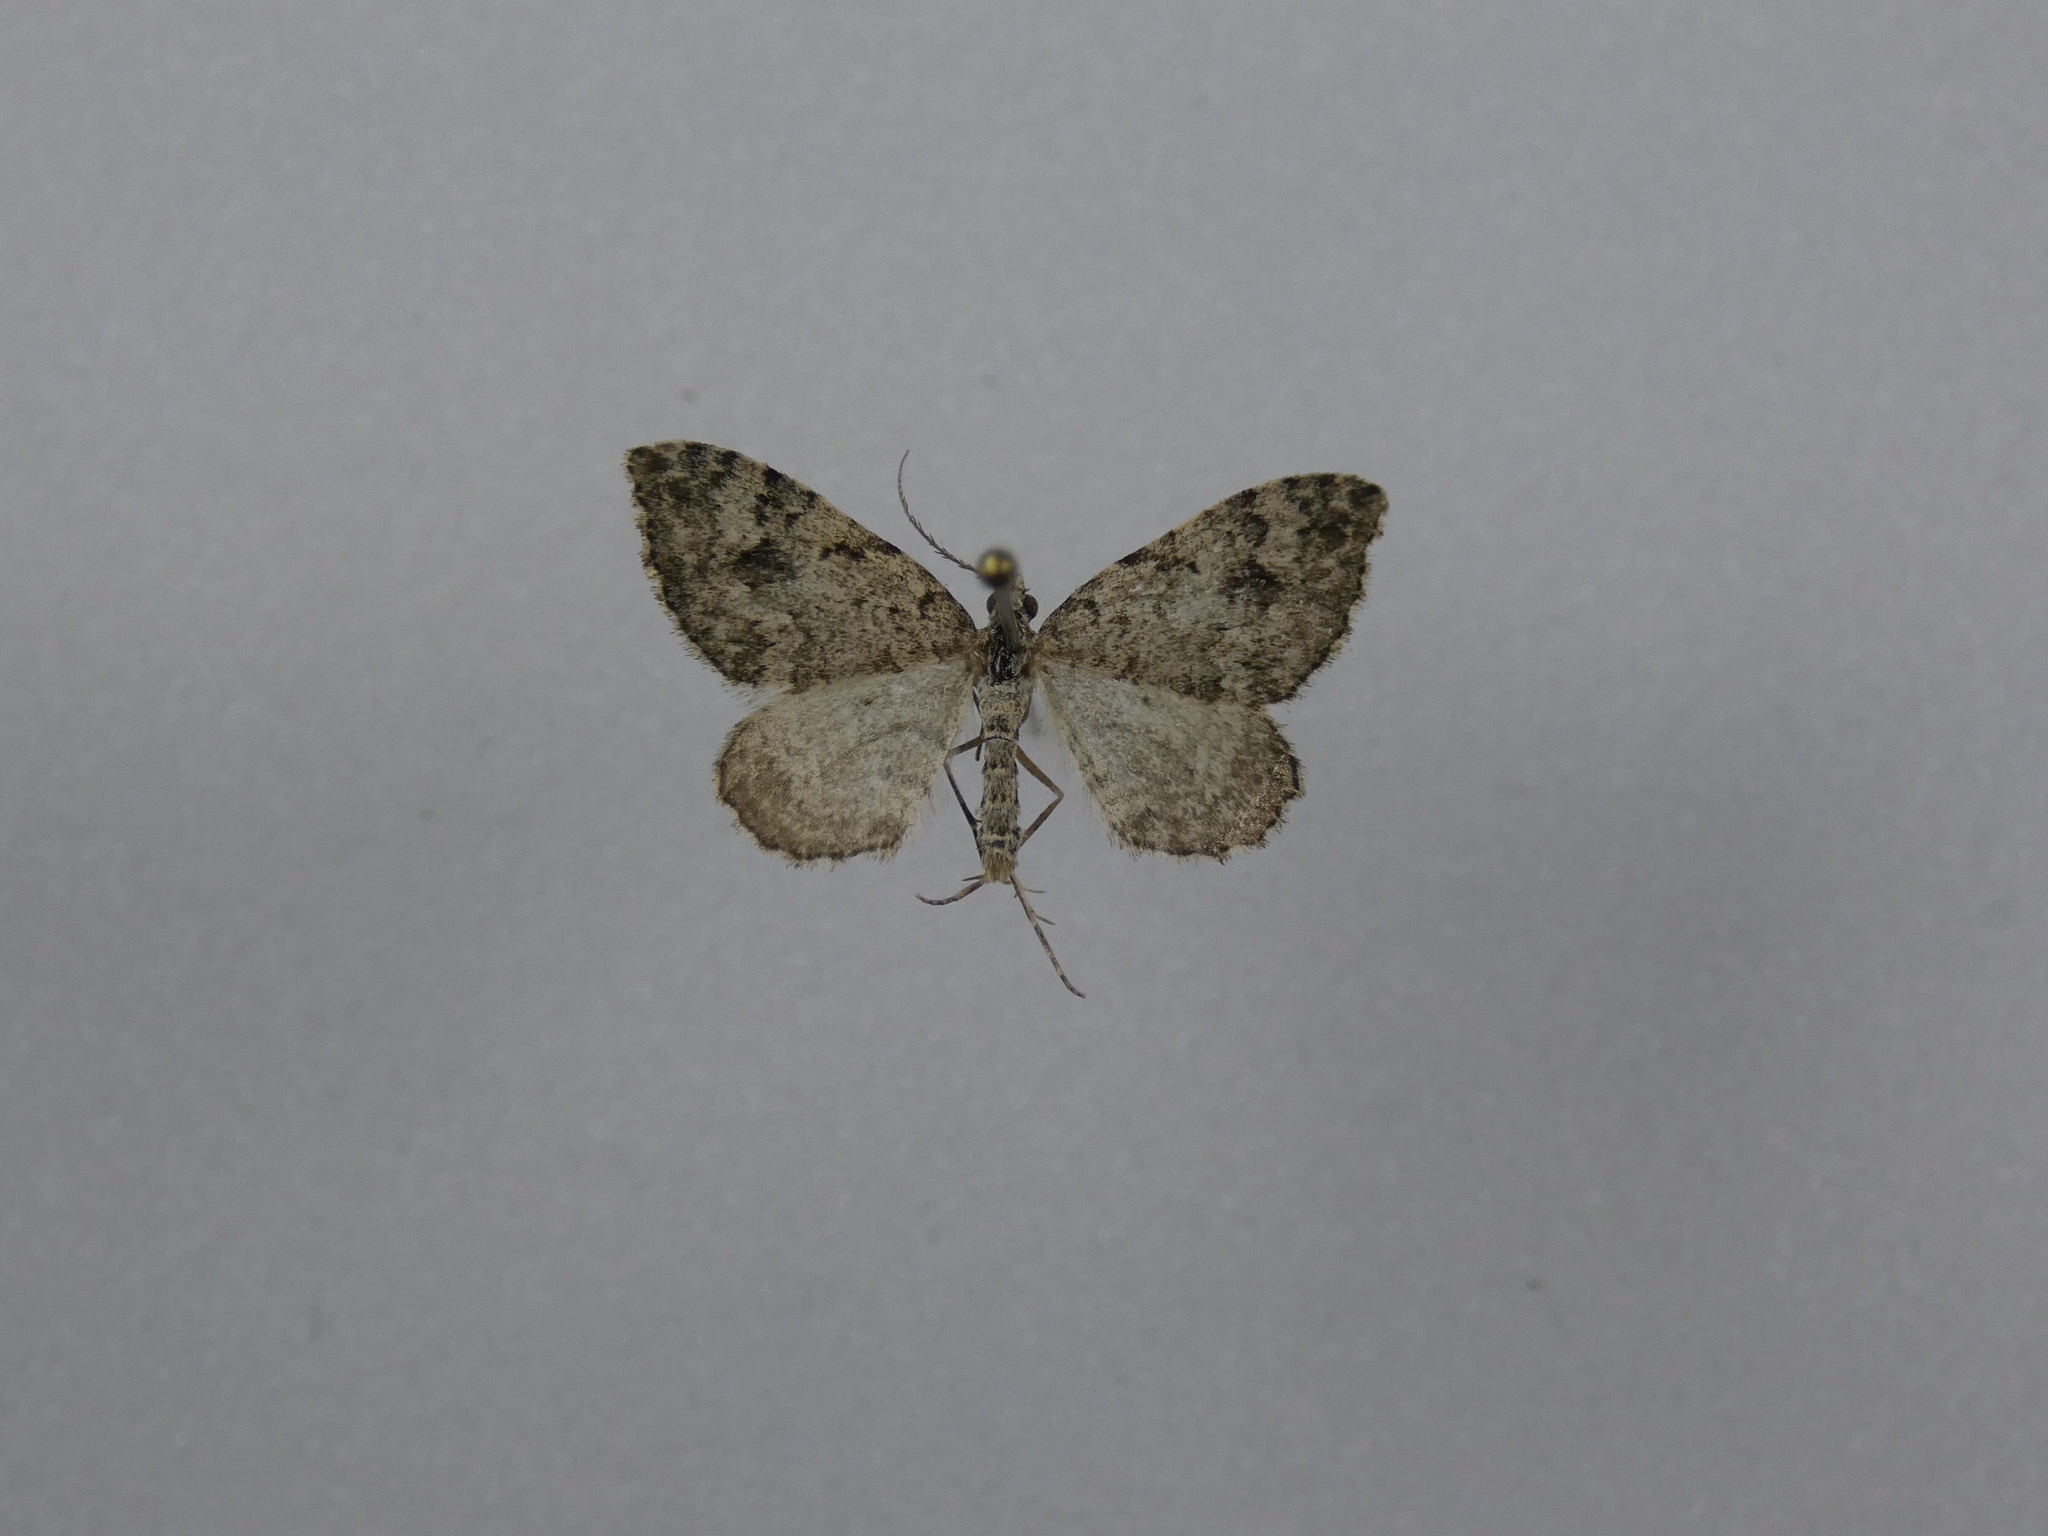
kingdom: Animalia
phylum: Arthropoda
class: Insecta
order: Lepidoptera
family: Geometridae
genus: Helastia
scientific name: Helastia cinerearia
